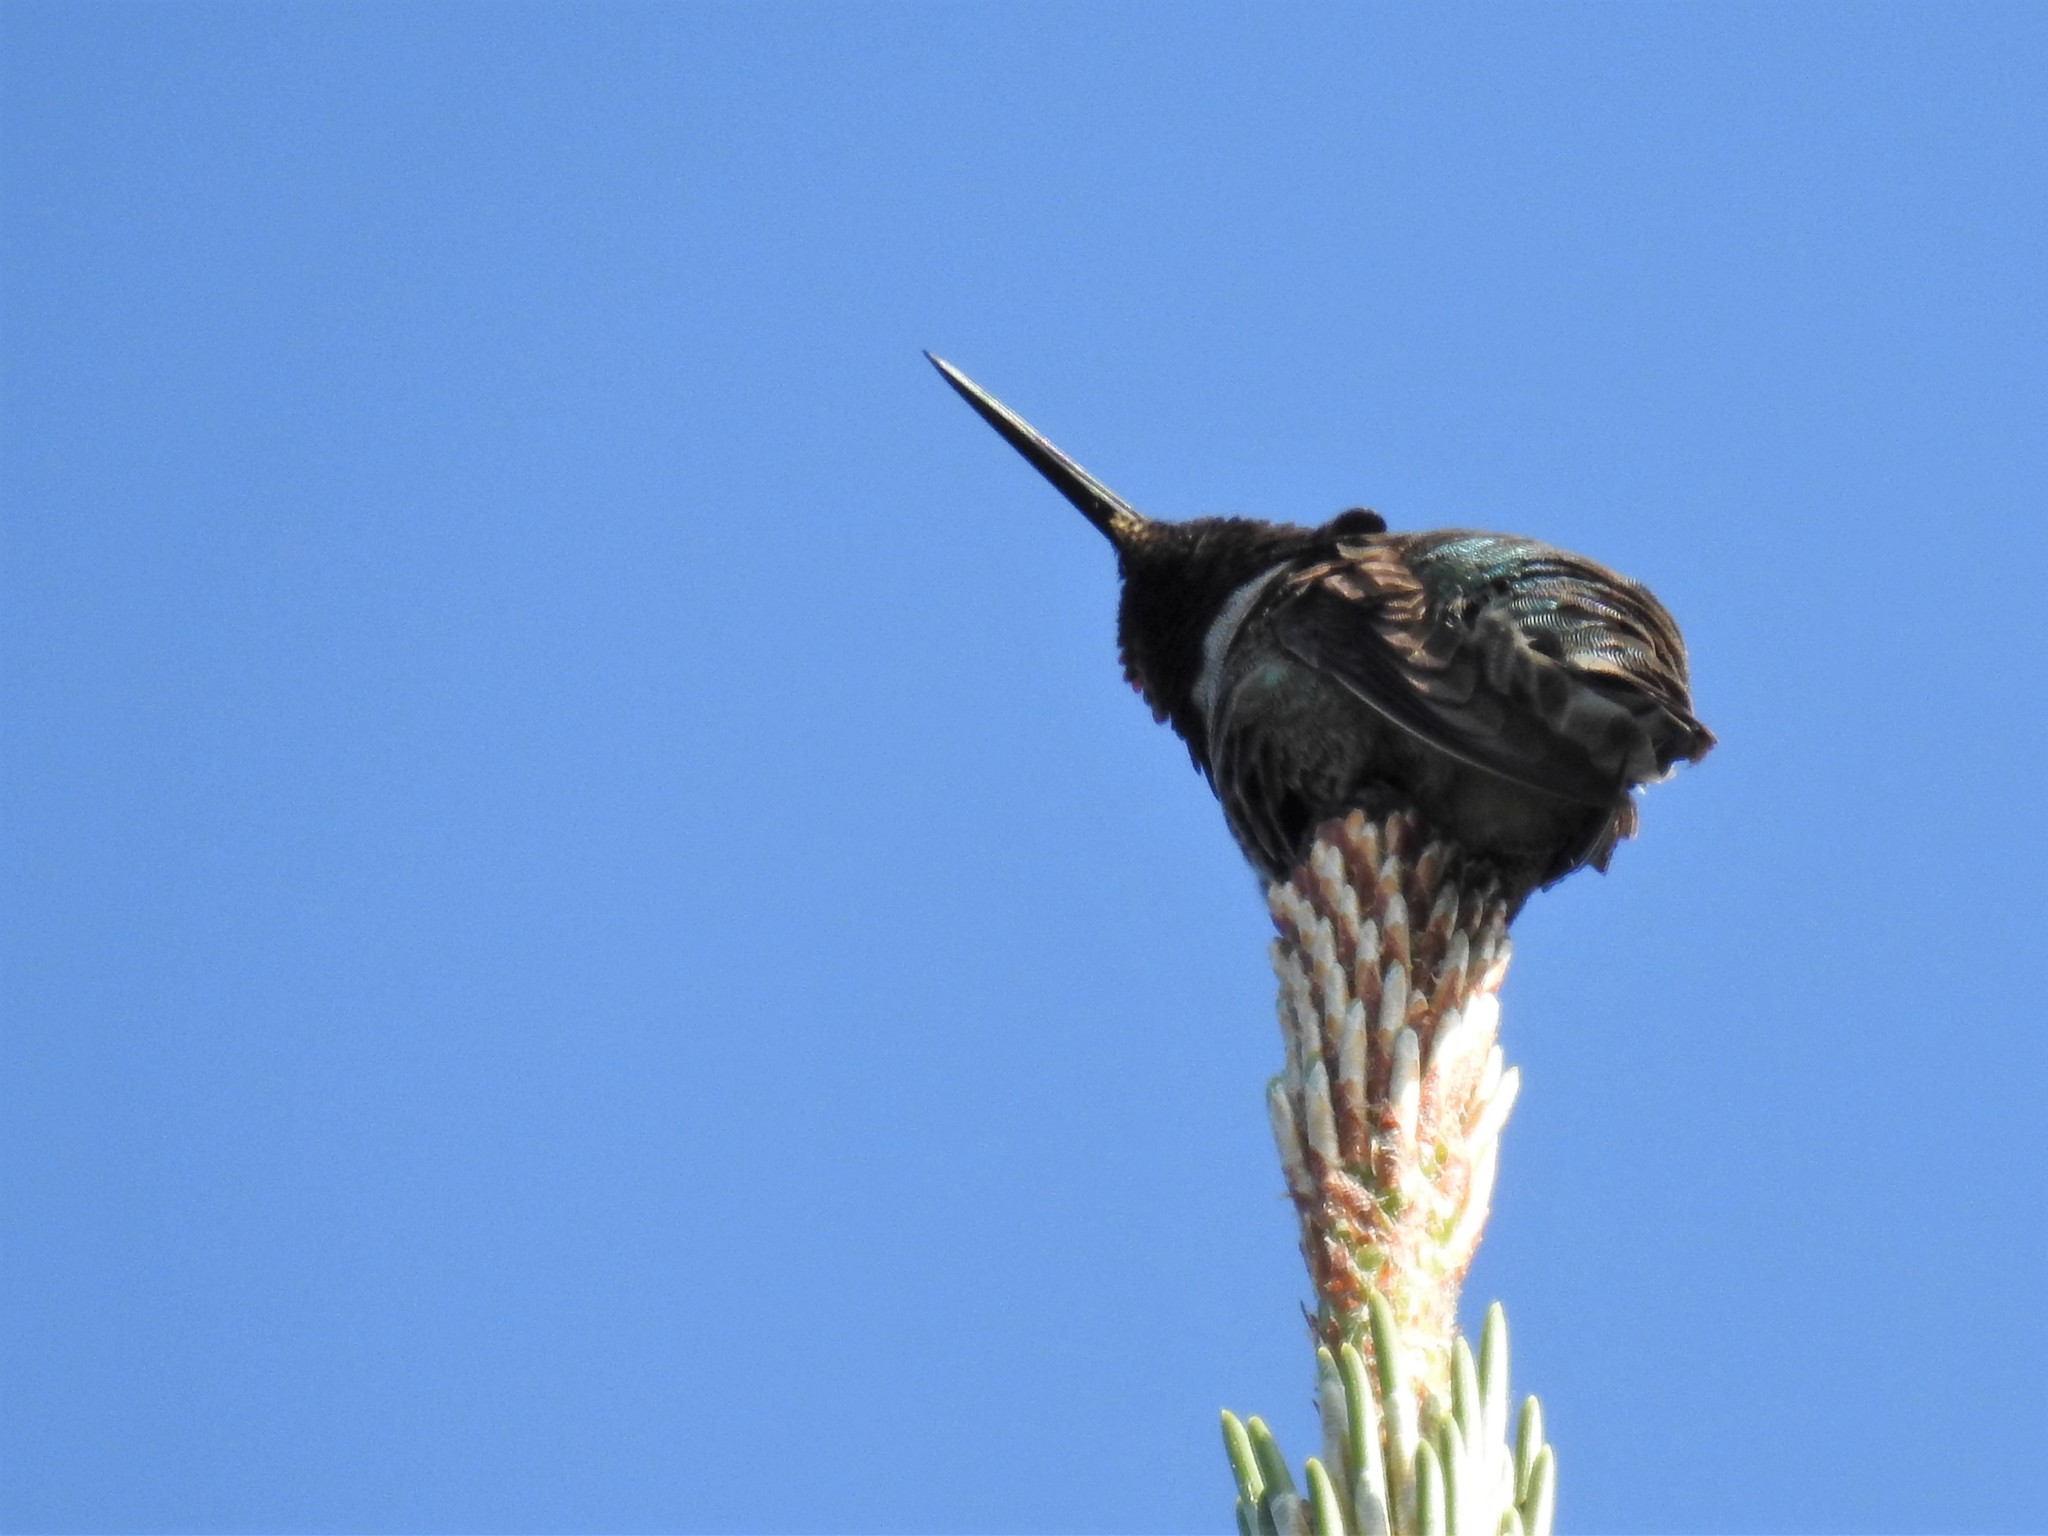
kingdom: Animalia
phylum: Chordata
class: Aves
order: Apodiformes
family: Trochilidae
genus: Calypte
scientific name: Calypte anna
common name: Anna's hummingbird
